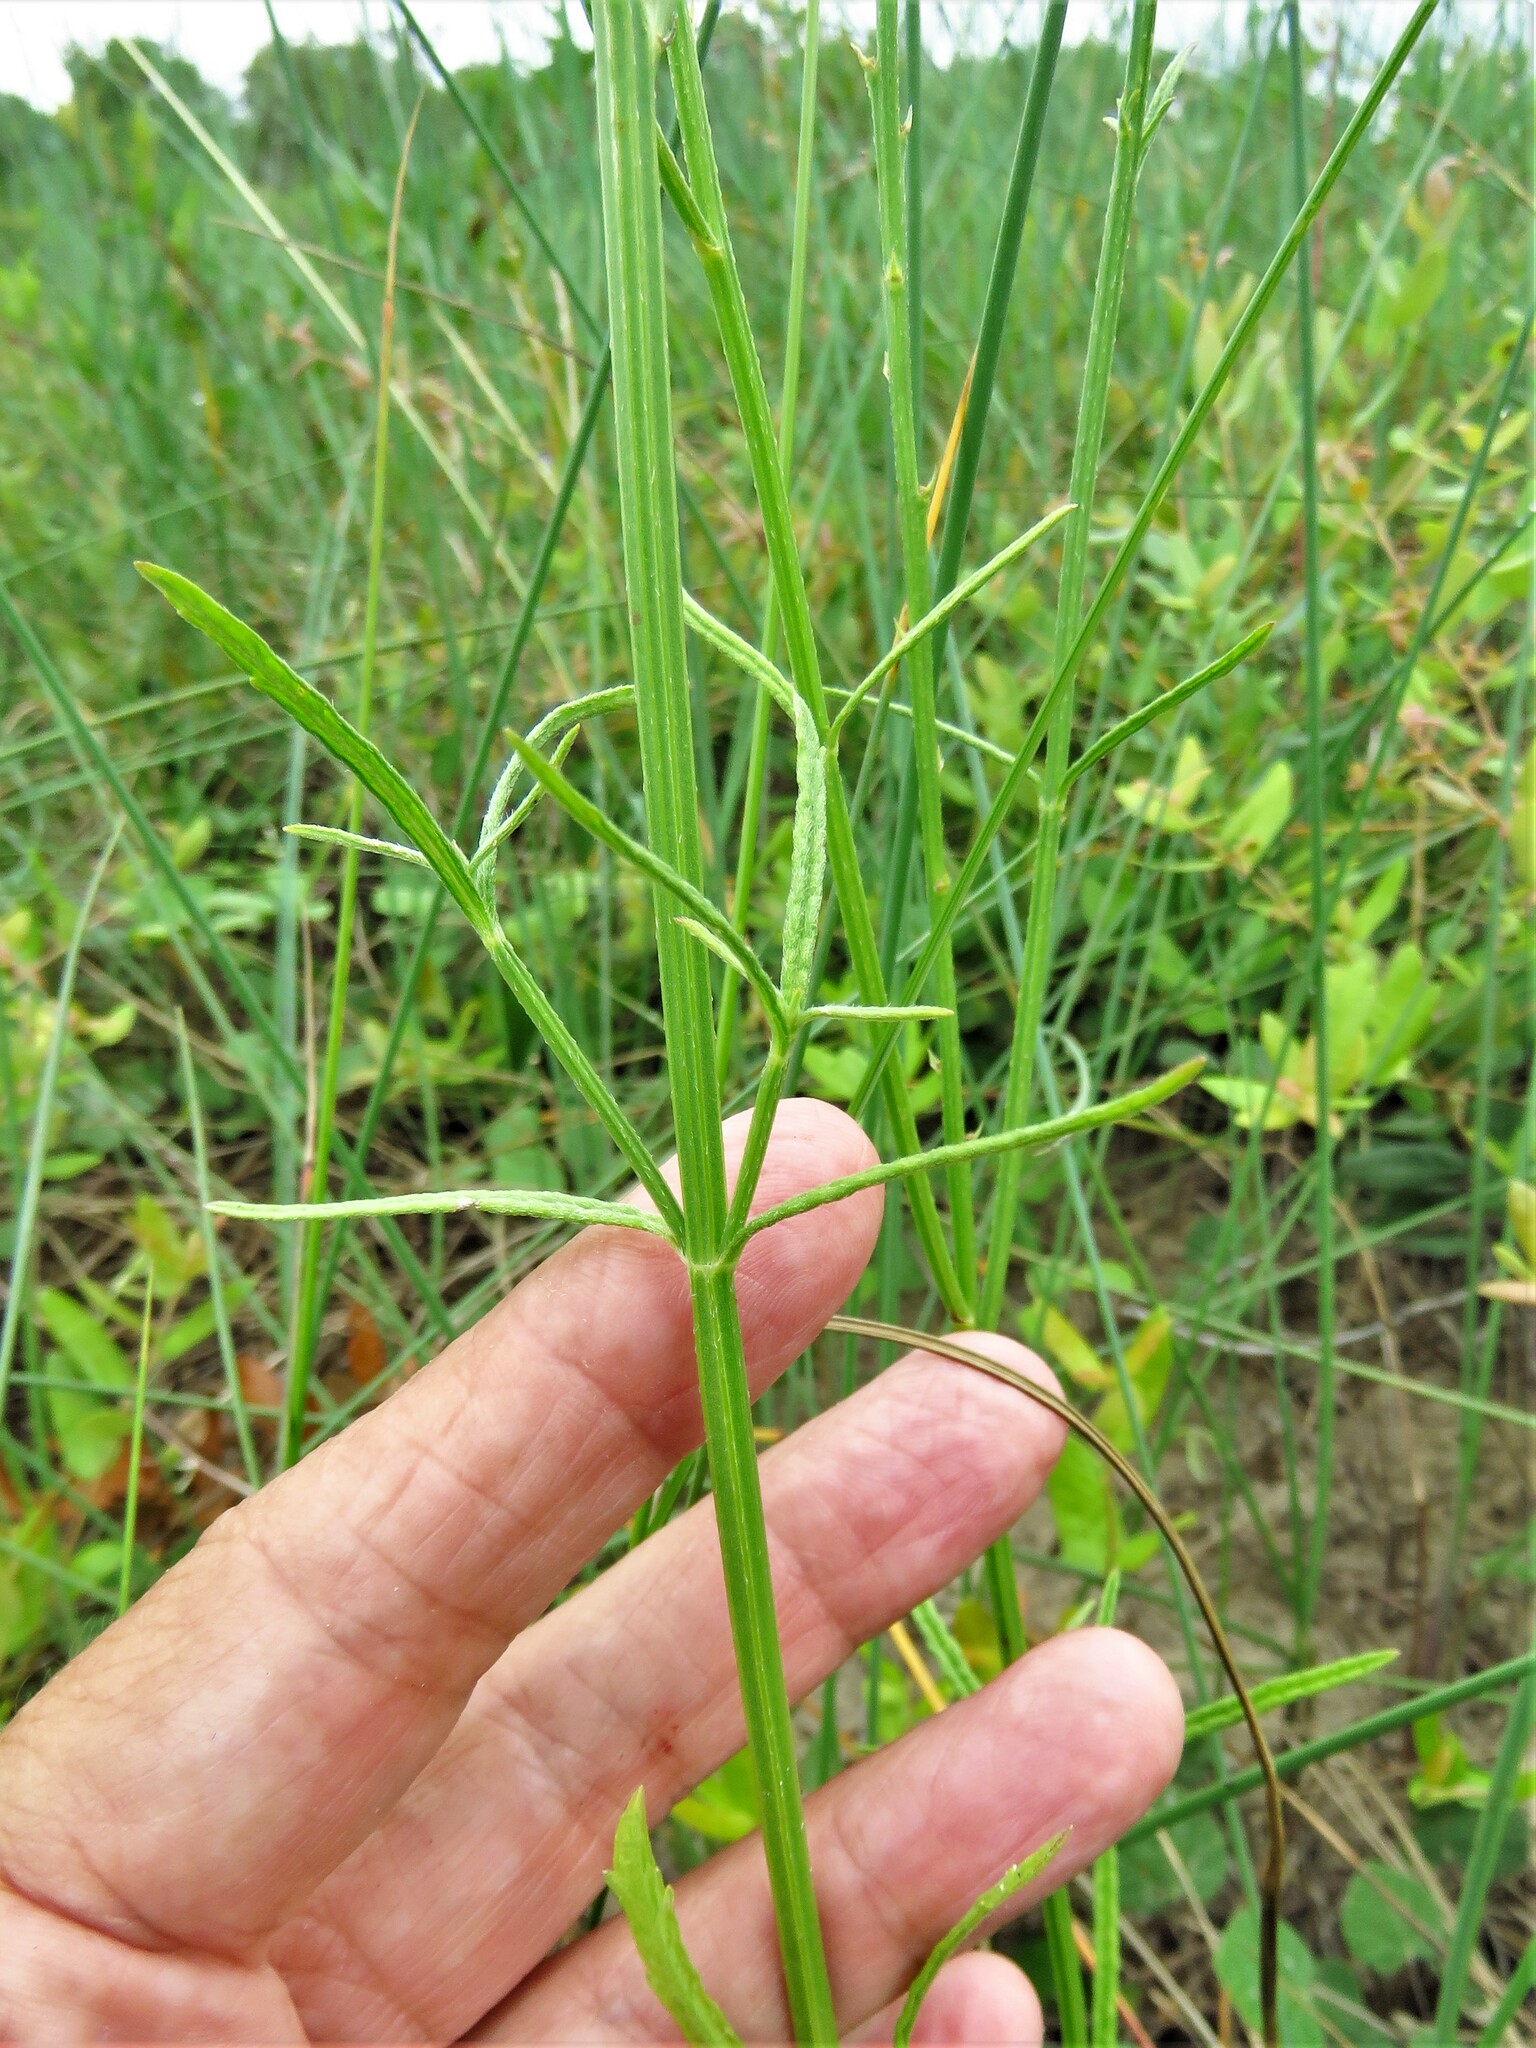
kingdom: Plantae
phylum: Tracheophyta
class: Magnoliopsida
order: Lamiales
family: Verbenaceae
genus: Verbena
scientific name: Verbena halei
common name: Texas vervain
